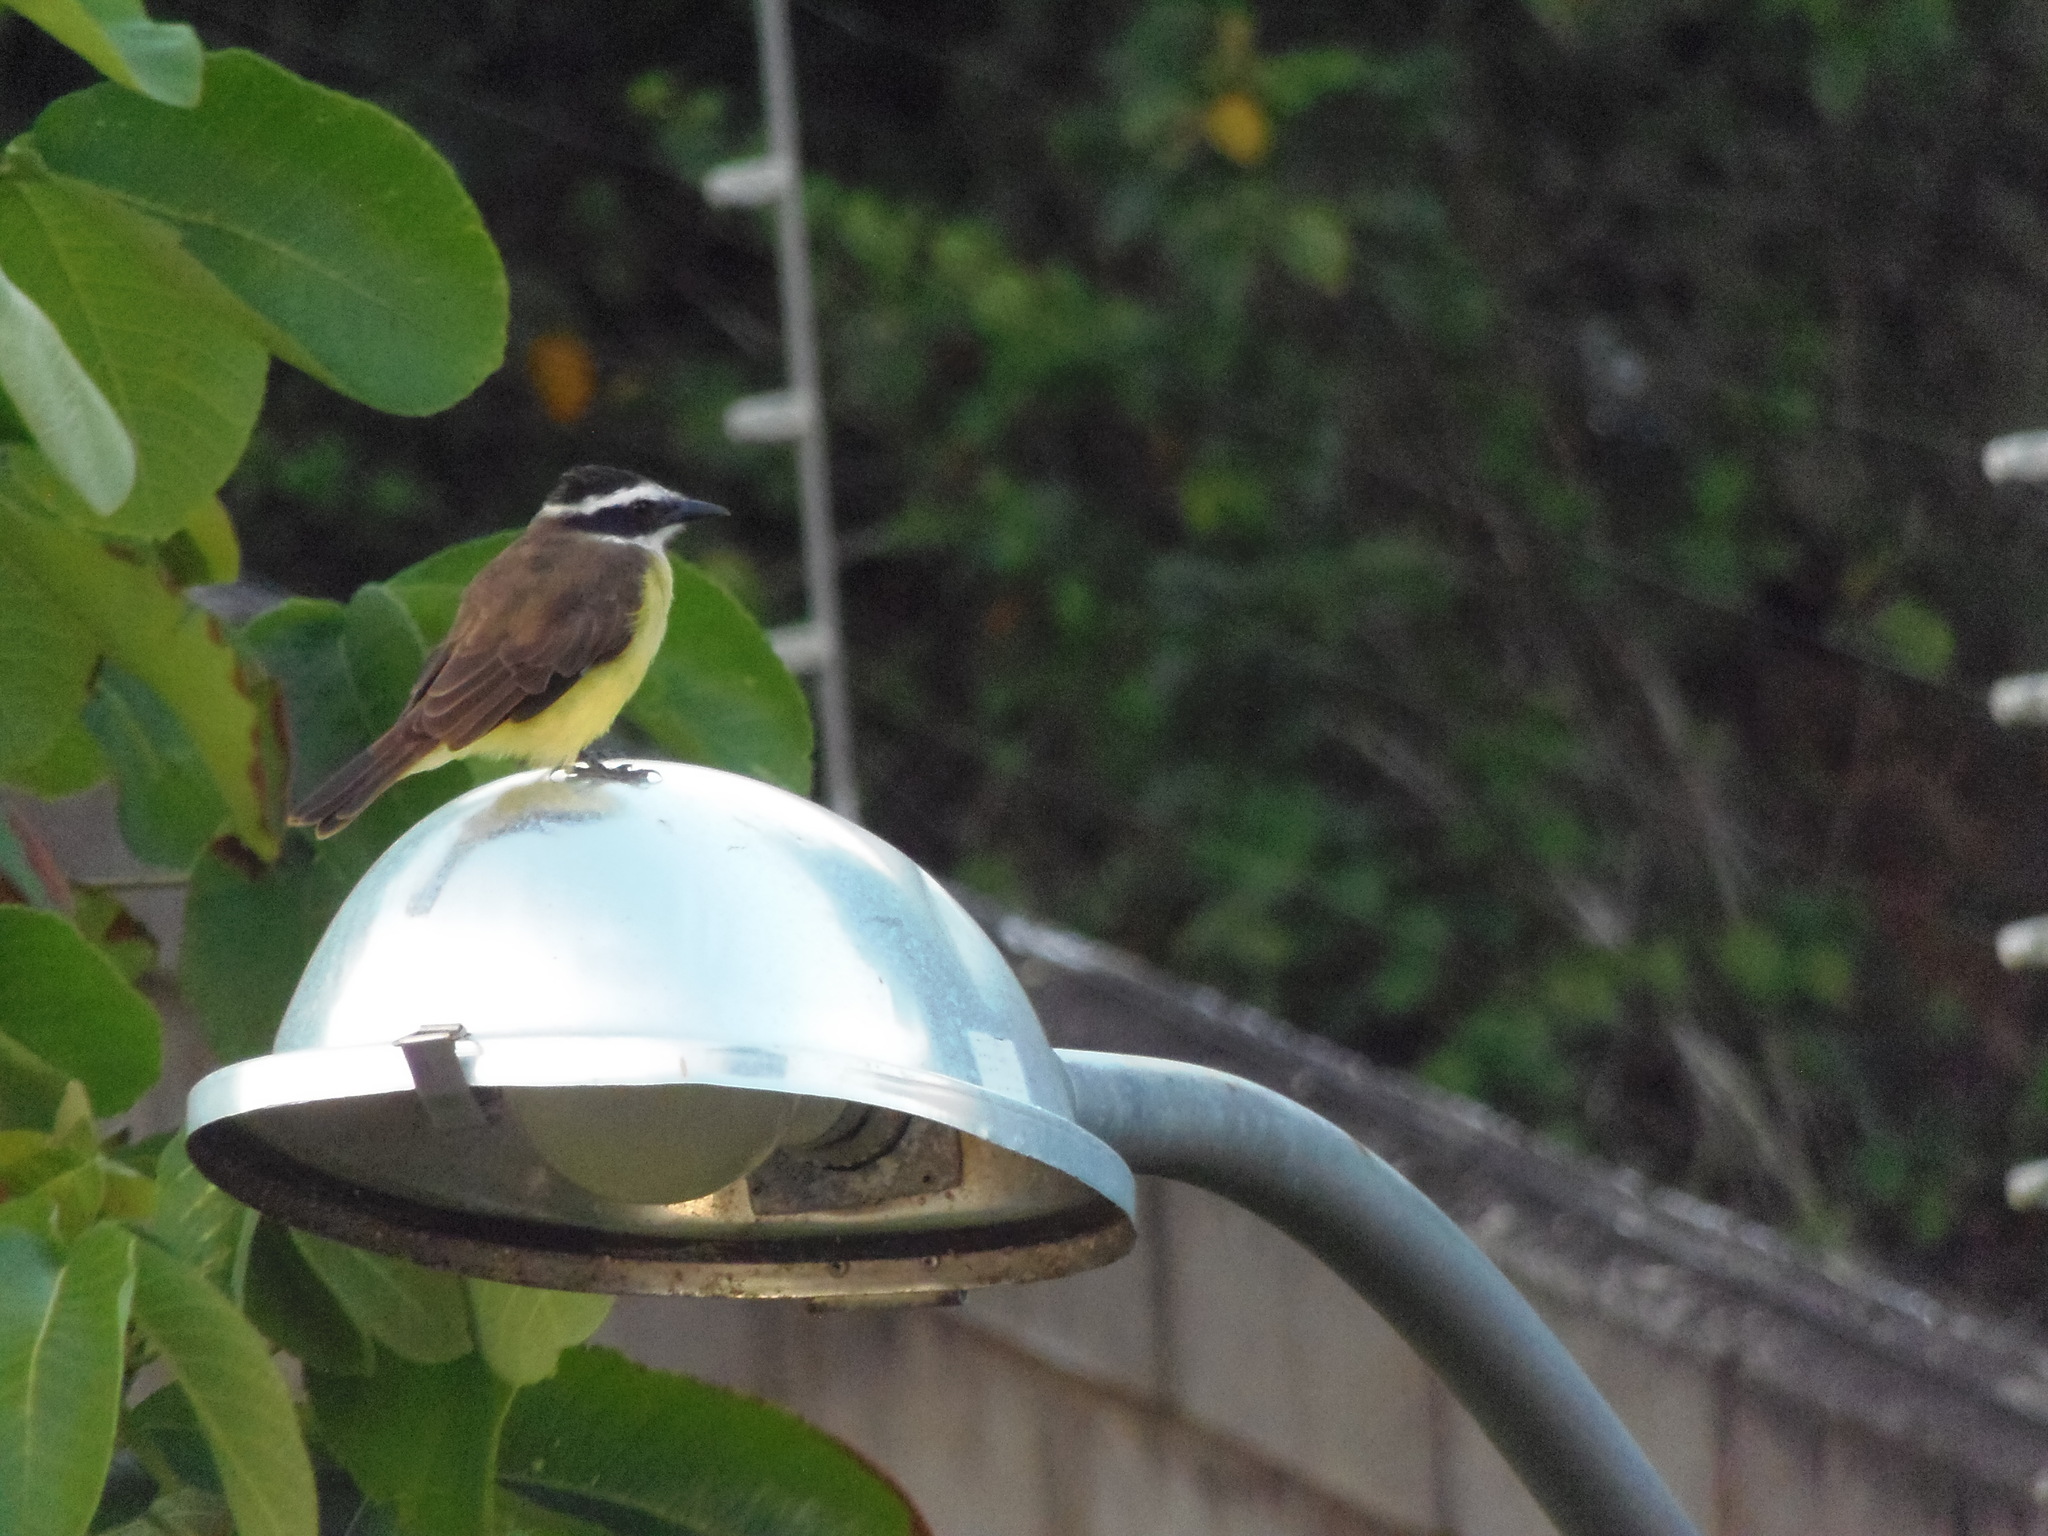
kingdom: Animalia
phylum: Chordata
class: Aves
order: Passeriformes
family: Tyrannidae
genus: Pitangus
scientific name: Pitangus sulphuratus
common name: Great kiskadee
